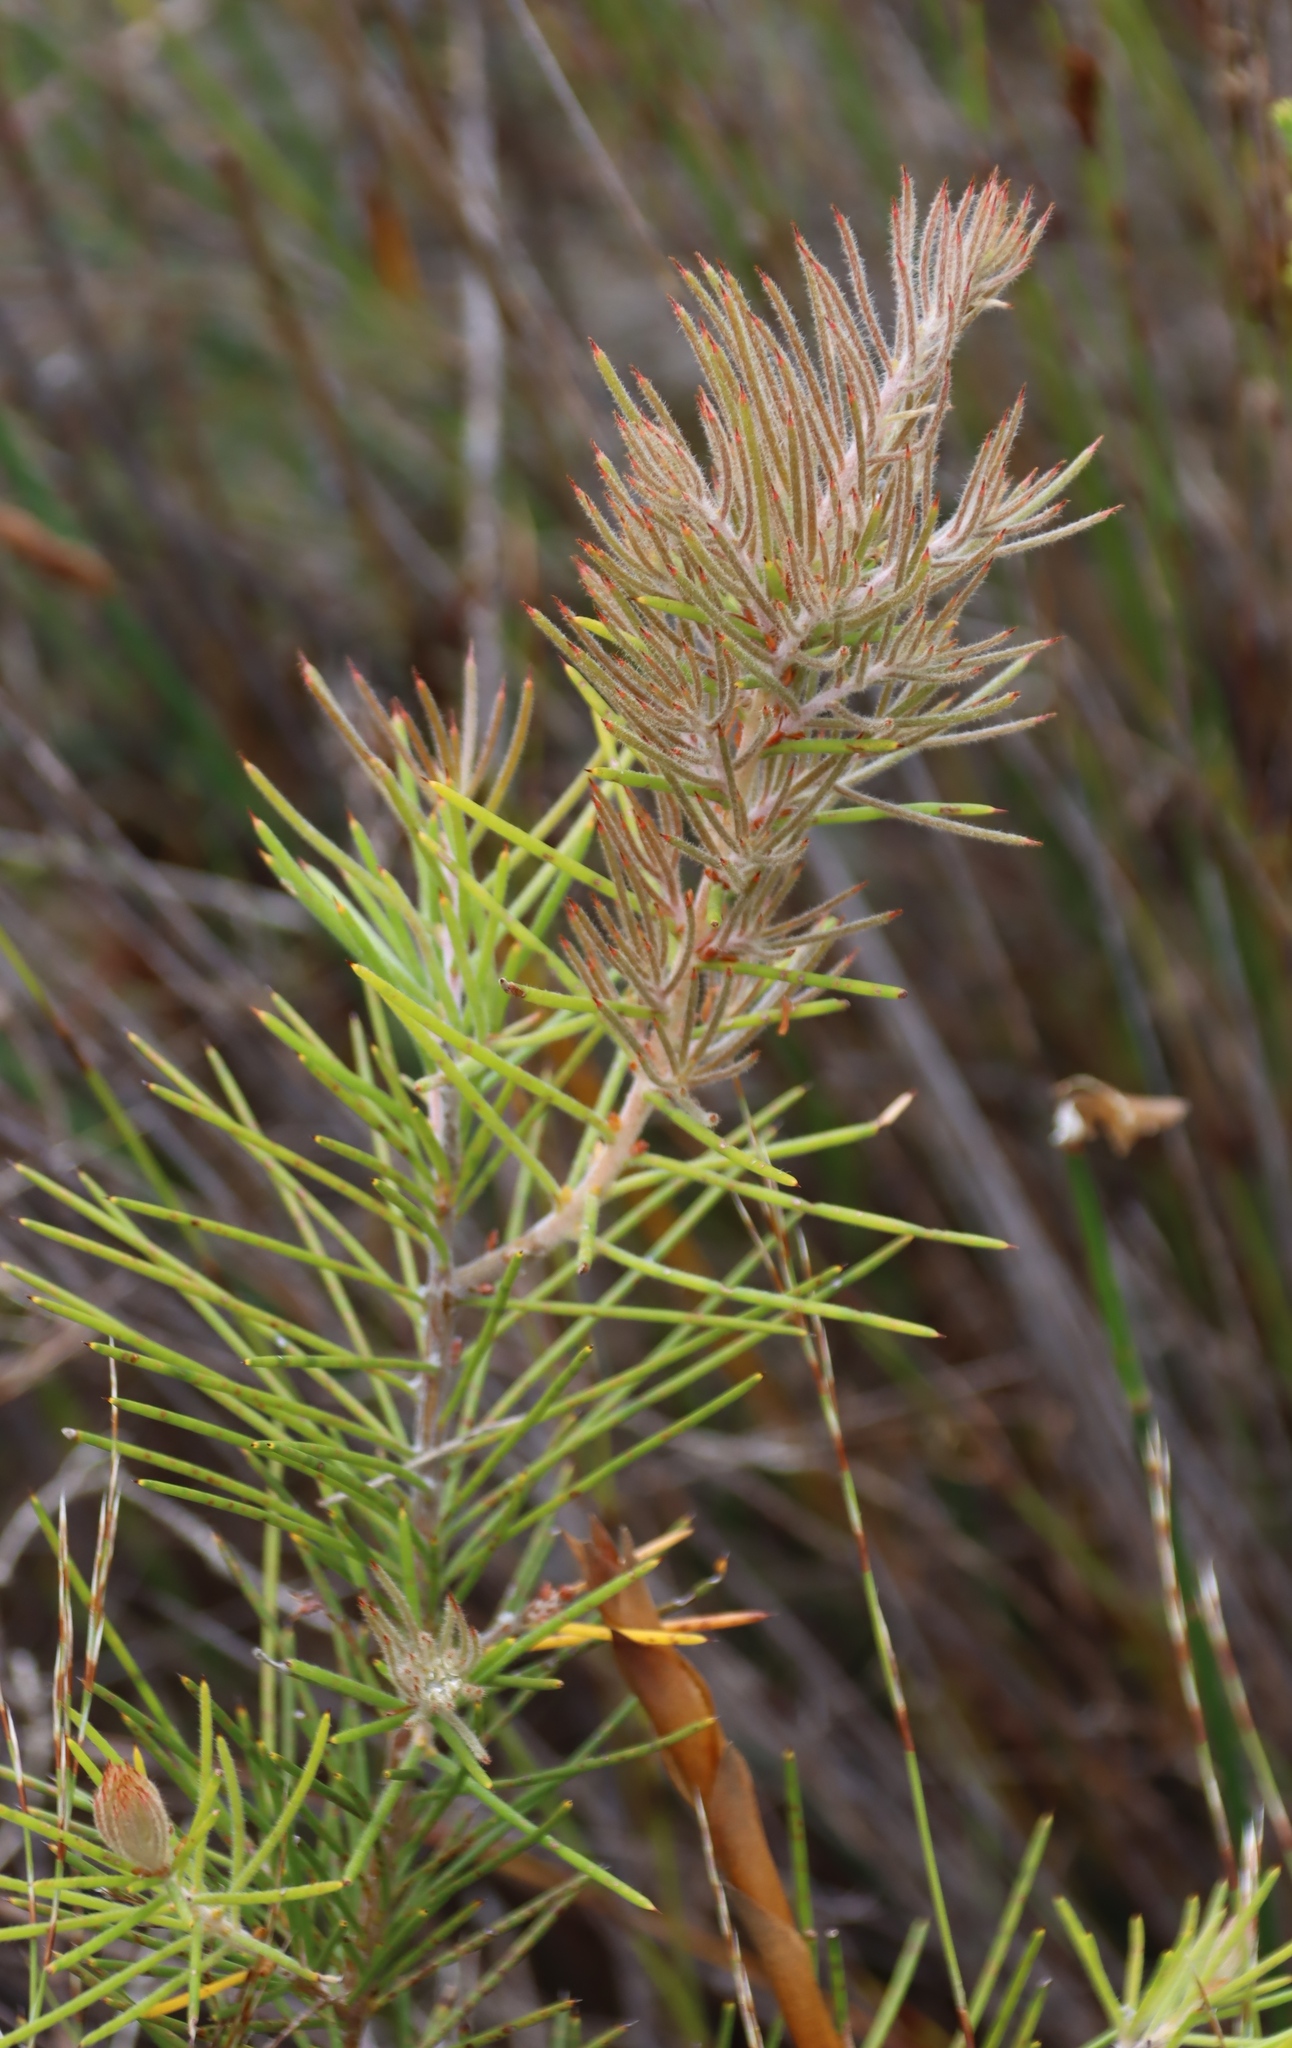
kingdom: Plantae
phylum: Tracheophyta
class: Magnoliopsida
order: Proteales
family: Proteaceae
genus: Hakea
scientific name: Hakea gibbosa
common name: Rock hakea
